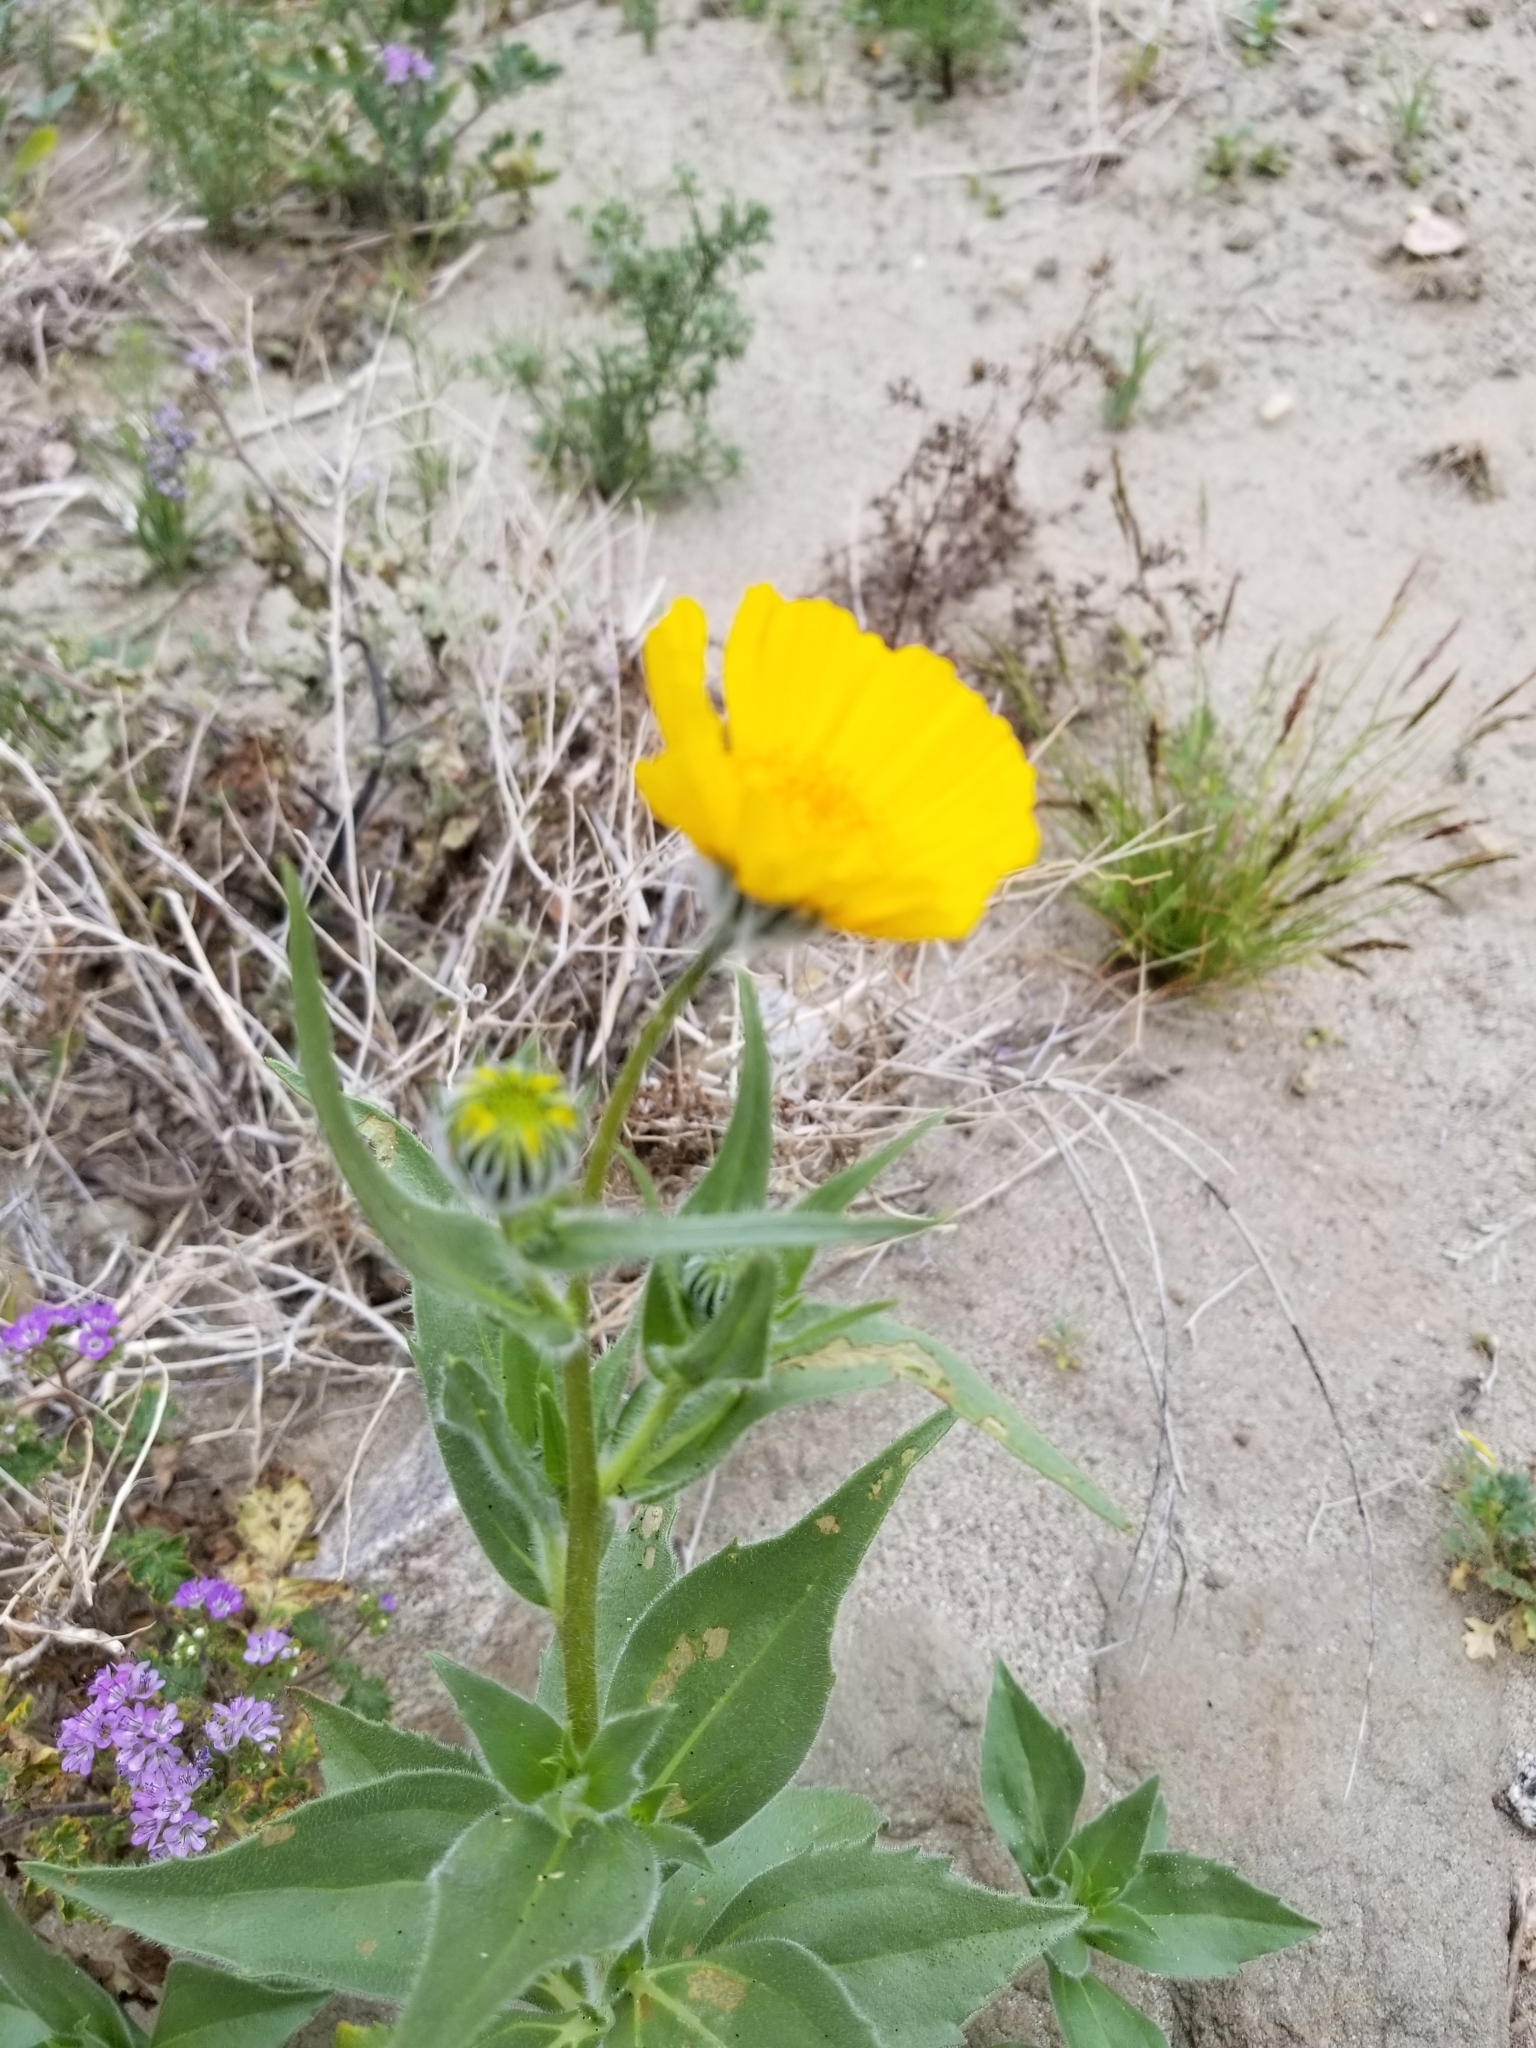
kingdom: Plantae
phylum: Tracheophyta
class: Magnoliopsida
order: Asterales
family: Asteraceae
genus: Geraea
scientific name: Geraea canescens
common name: Desert-gold
